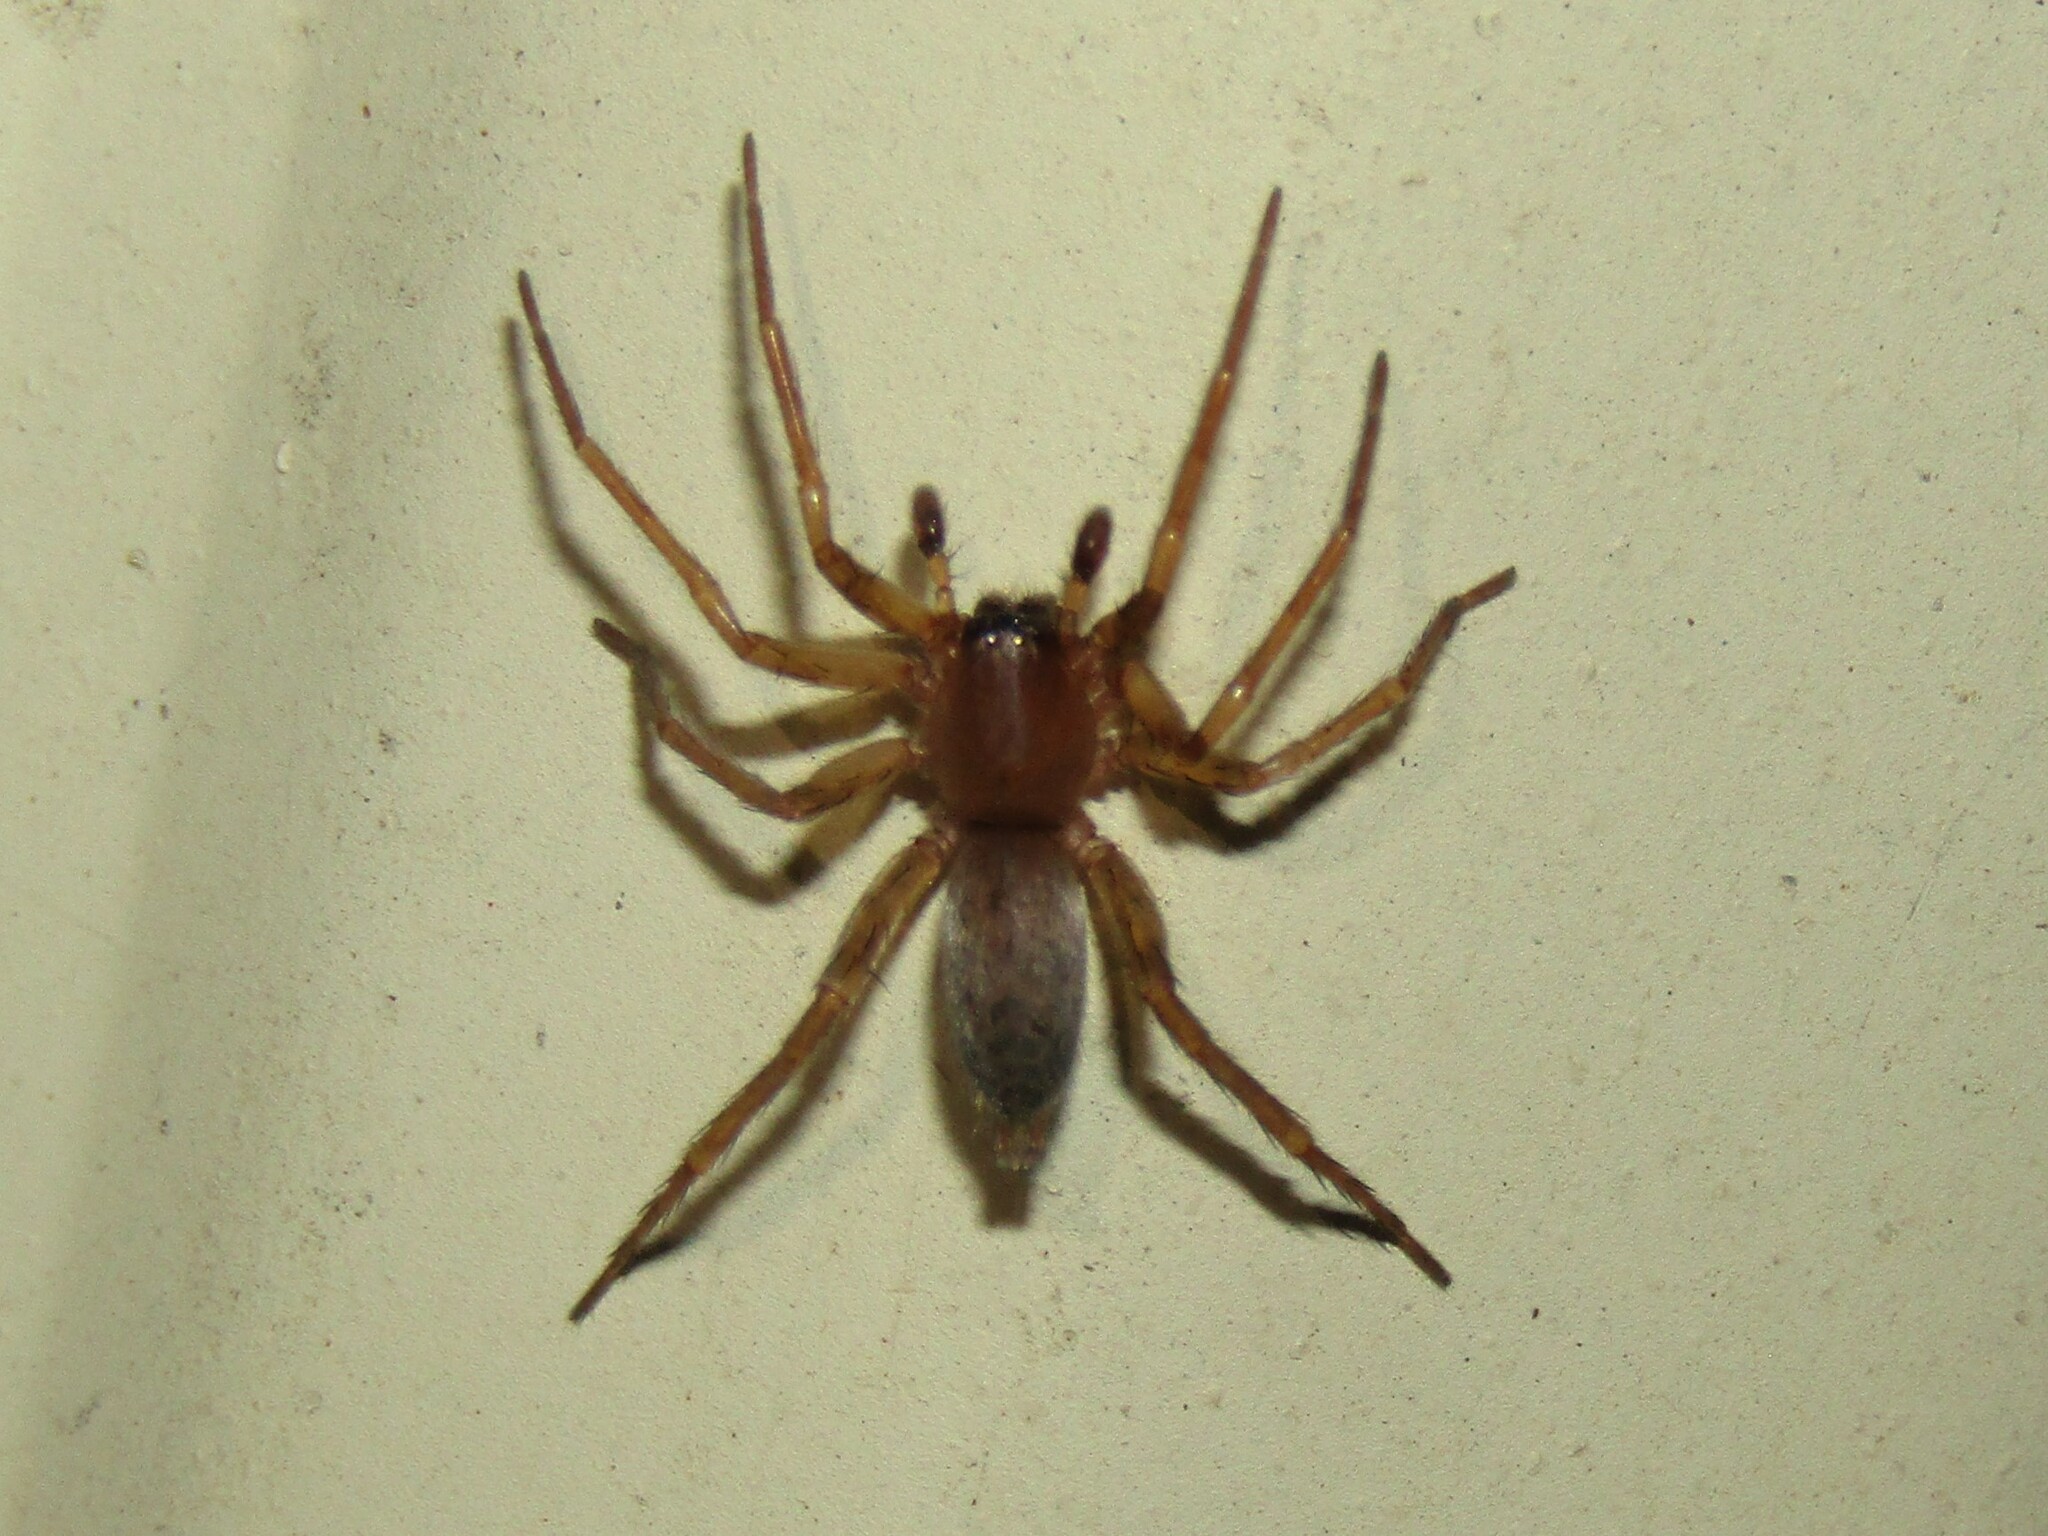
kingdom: Animalia
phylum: Arthropoda
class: Arachnida
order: Araneae
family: Clubionidae
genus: Elaver
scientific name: Elaver excepta
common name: White sac spider
